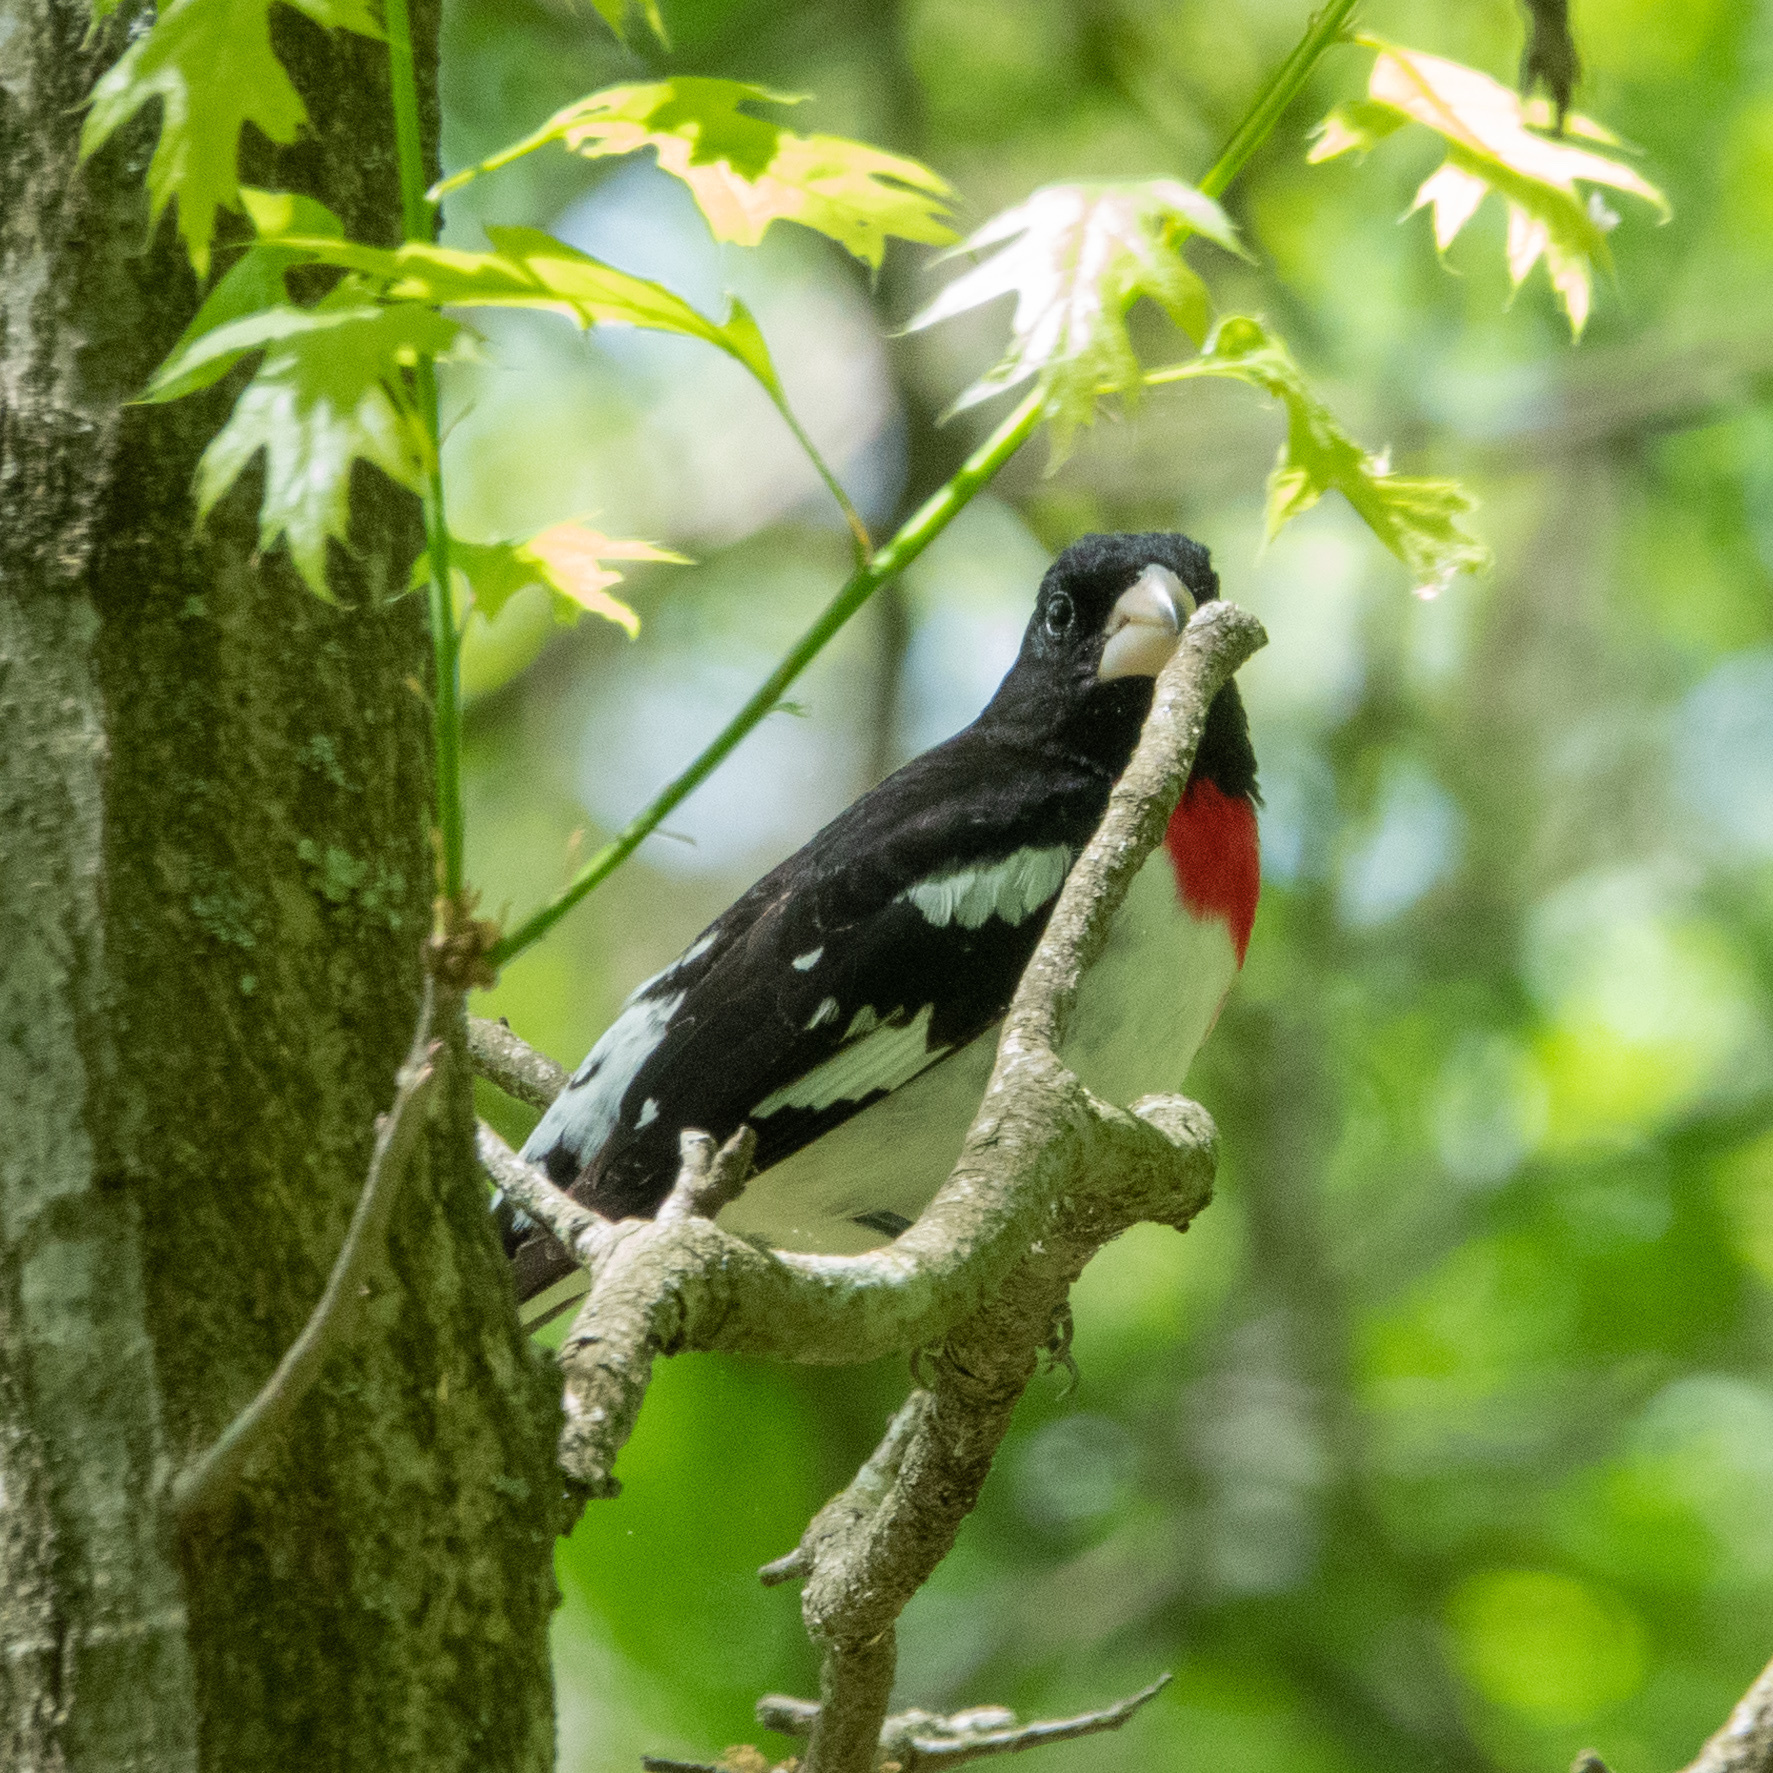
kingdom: Animalia
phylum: Chordata
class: Aves
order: Passeriformes
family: Cardinalidae
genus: Pheucticus
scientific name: Pheucticus ludovicianus
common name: Rose-breasted grosbeak
